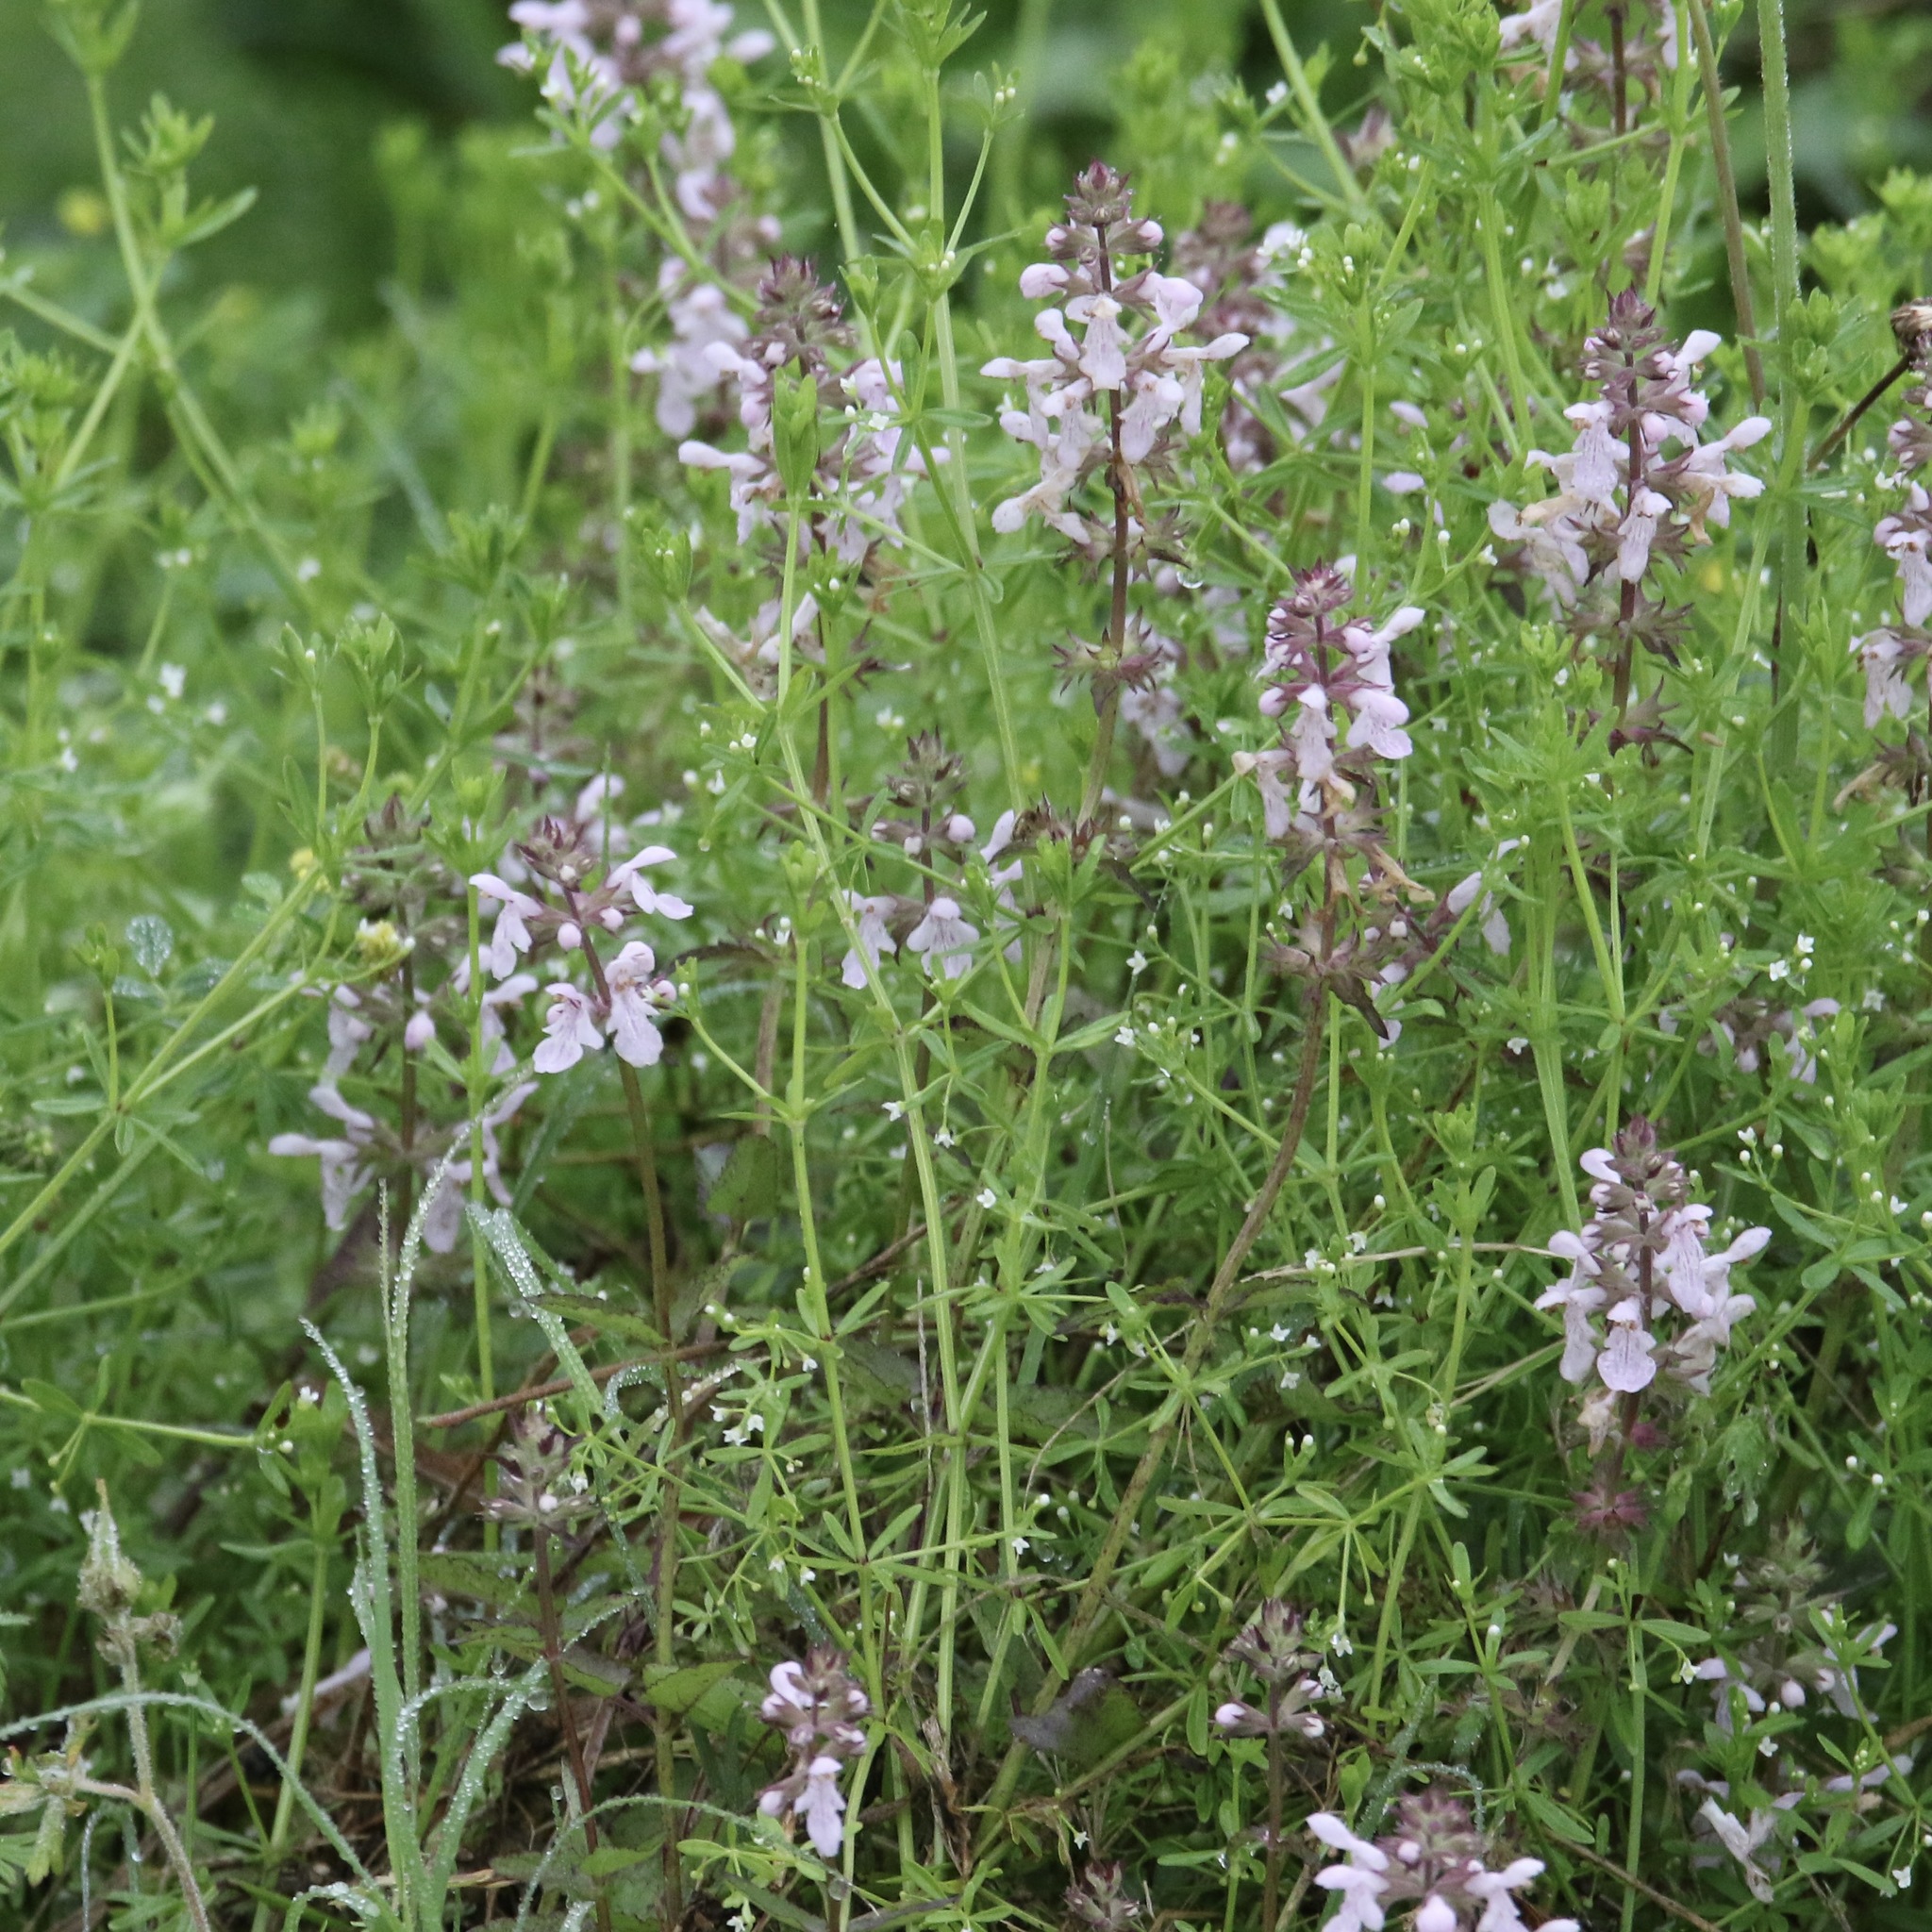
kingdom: Plantae
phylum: Tracheophyta
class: Magnoliopsida
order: Lamiales
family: Lamiaceae
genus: Stachys
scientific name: Stachys floridana
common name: Florida betony
